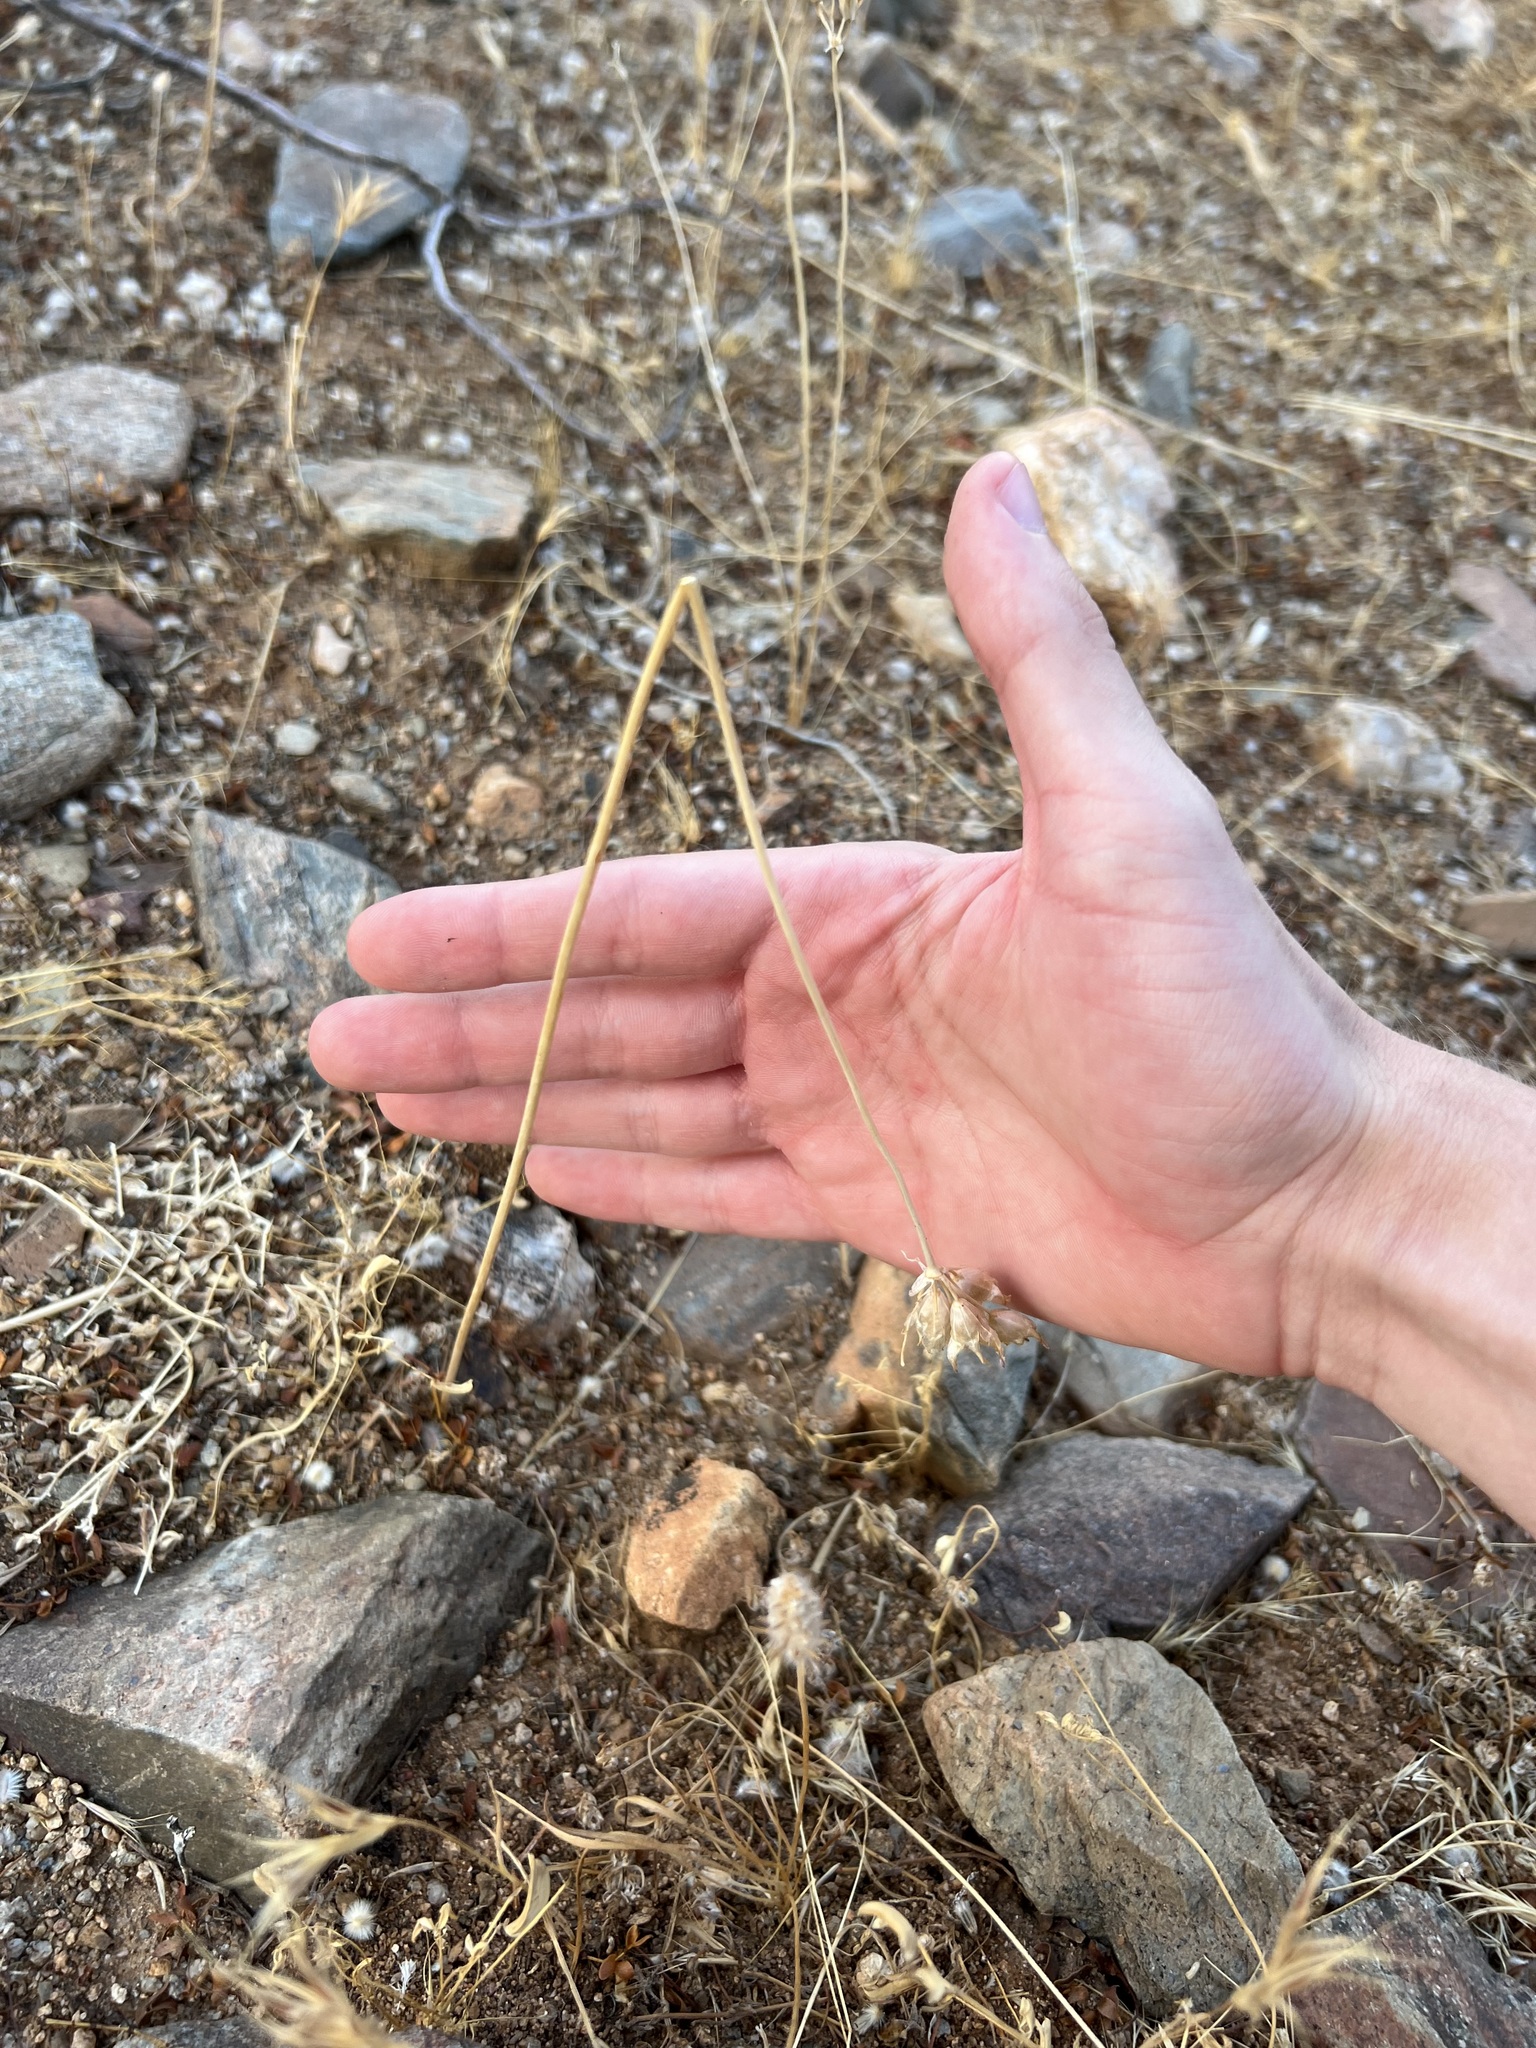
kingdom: Plantae
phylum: Tracheophyta
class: Liliopsida
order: Asparagales
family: Asparagaceae
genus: Dipterostemon
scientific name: Dipterostemon capitatus
